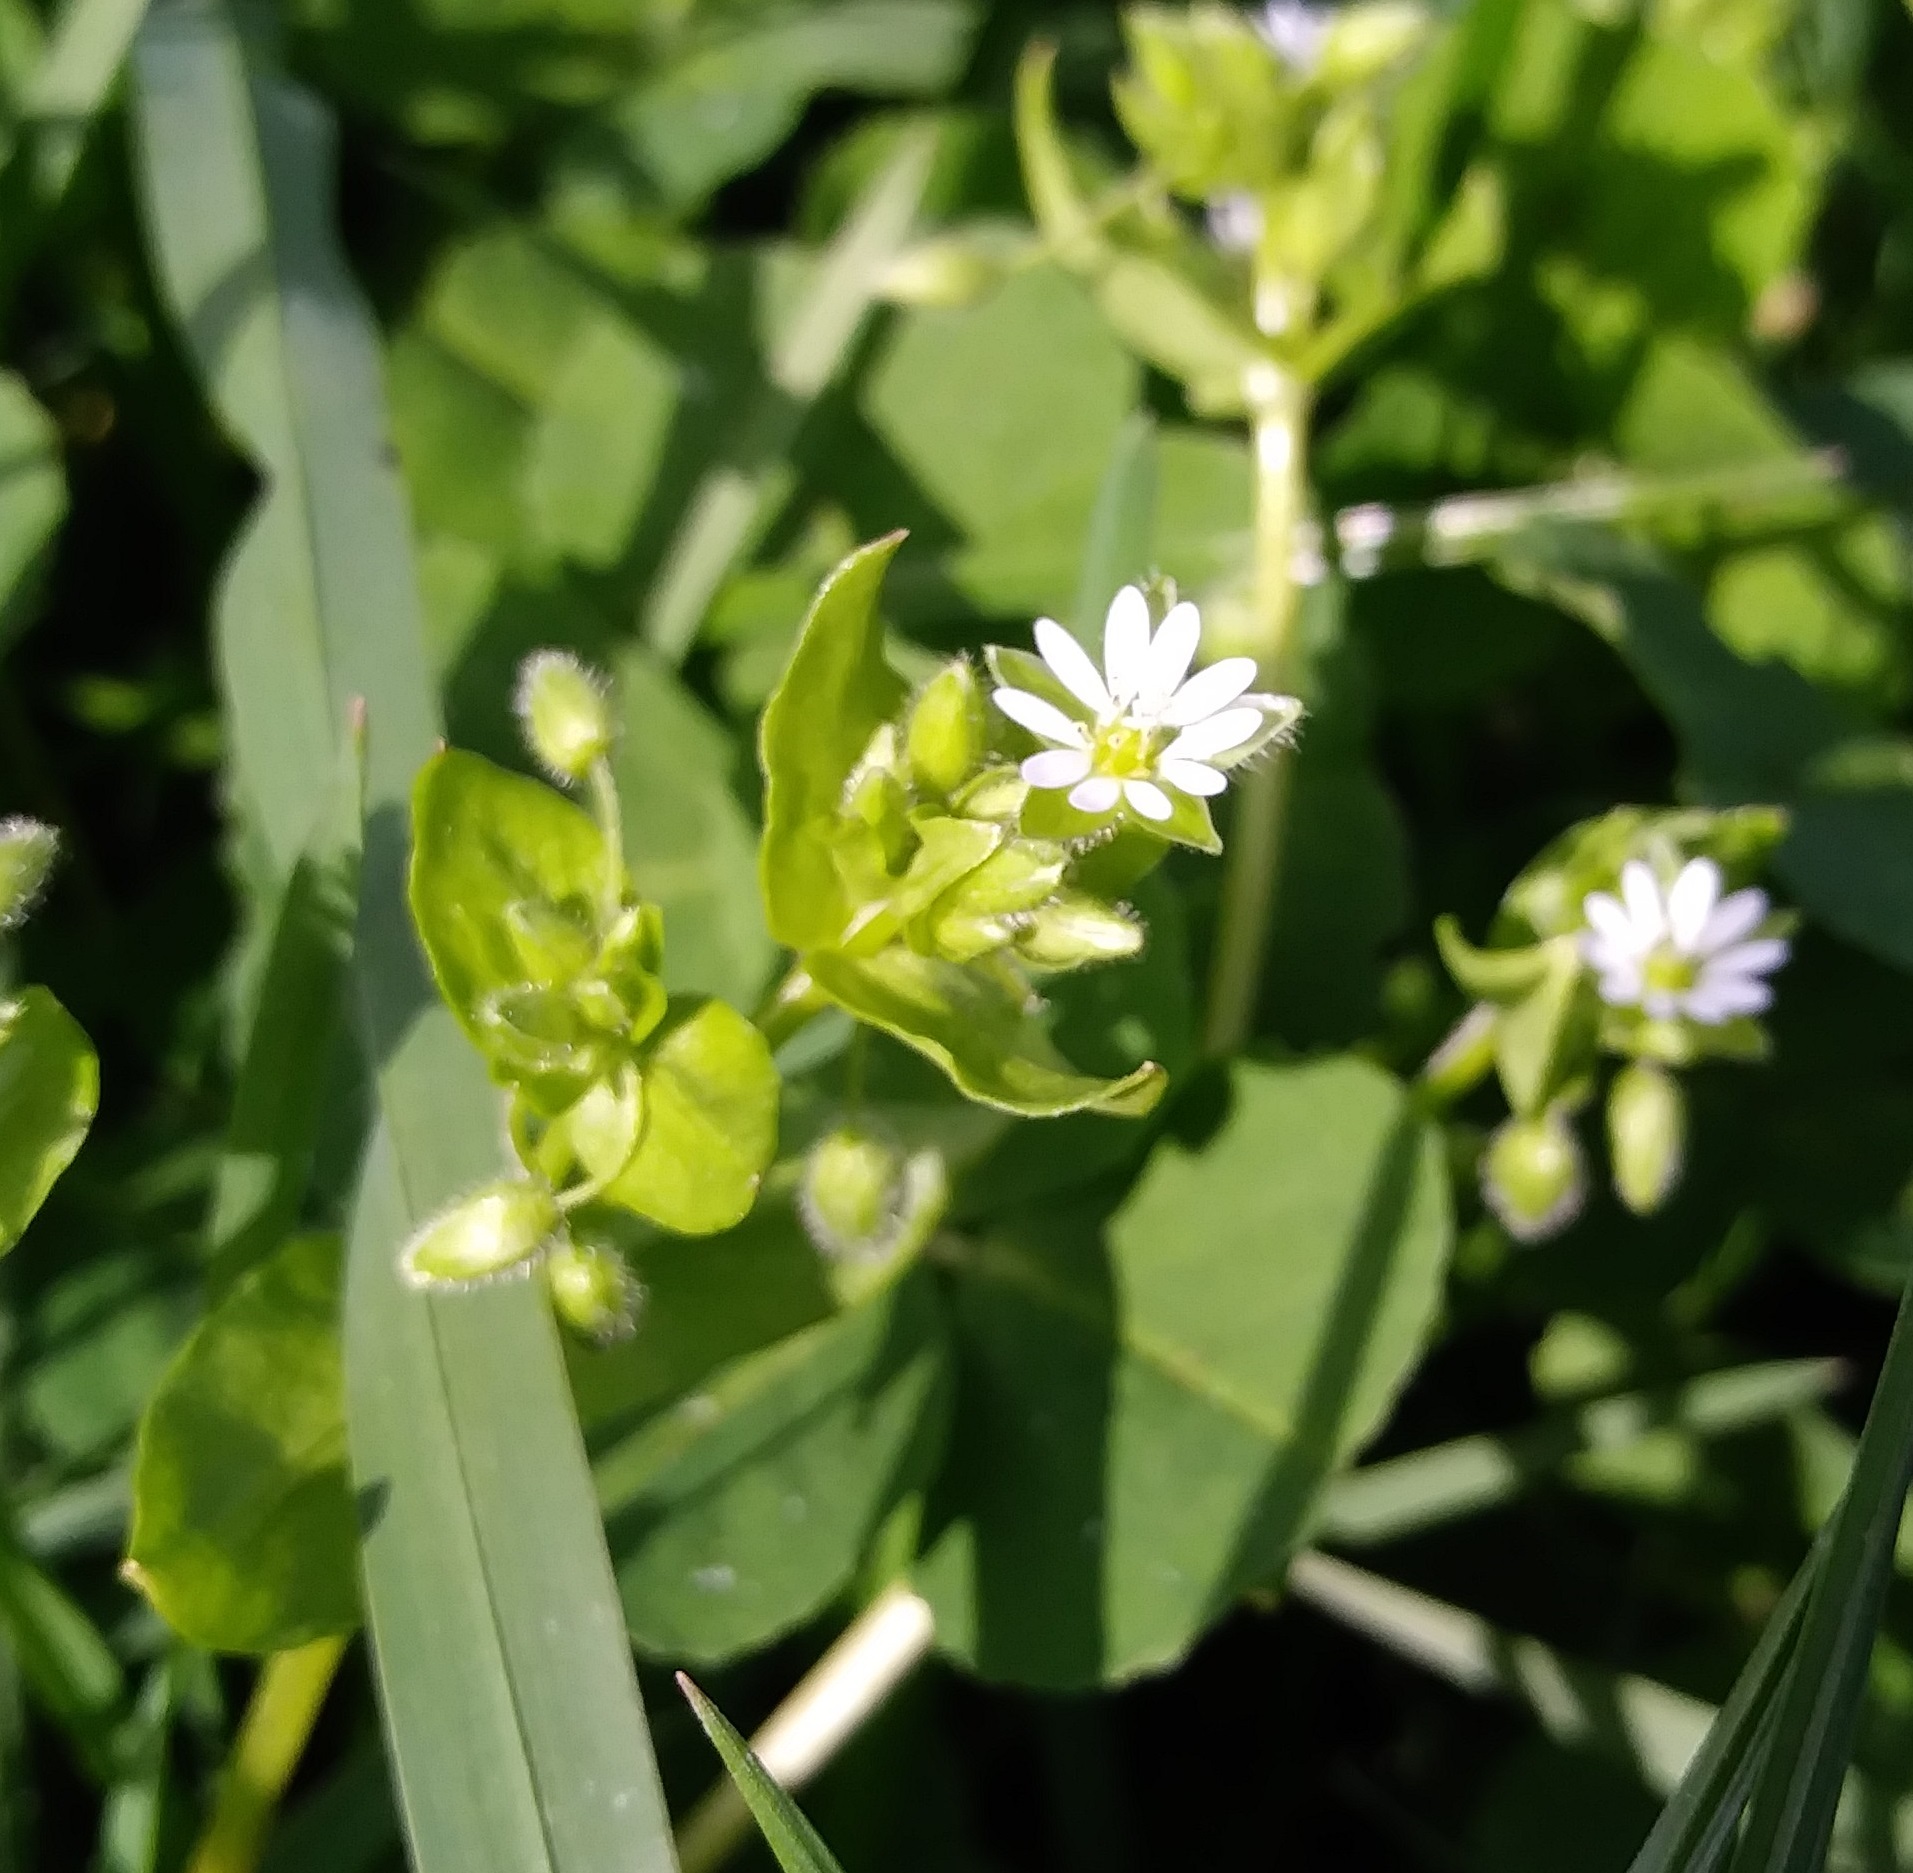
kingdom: Plantae
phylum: Tracheophyta
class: Magnoliopsida
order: Caryophyllales
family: Caryophyllaceae
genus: Stellaria
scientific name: Stellaria media
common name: Common chickweed
